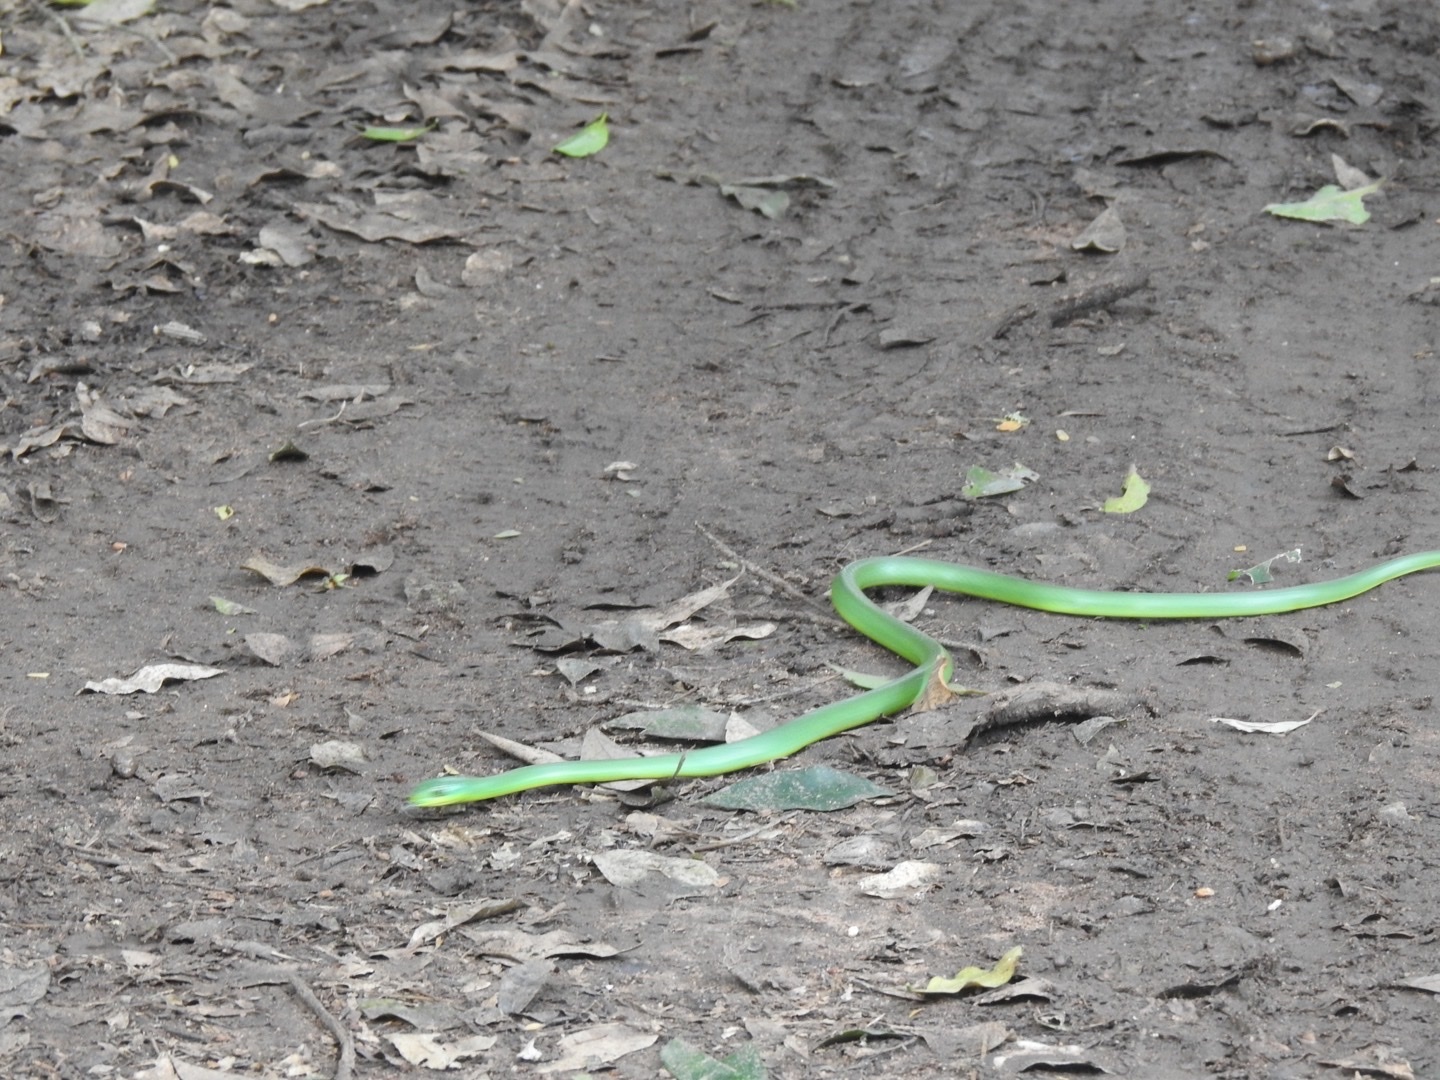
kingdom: Animalia
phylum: Chordata
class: Squamata
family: Colubridae
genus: Philothamnus
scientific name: Philothamnus natalensis
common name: Eastern natal green snake
